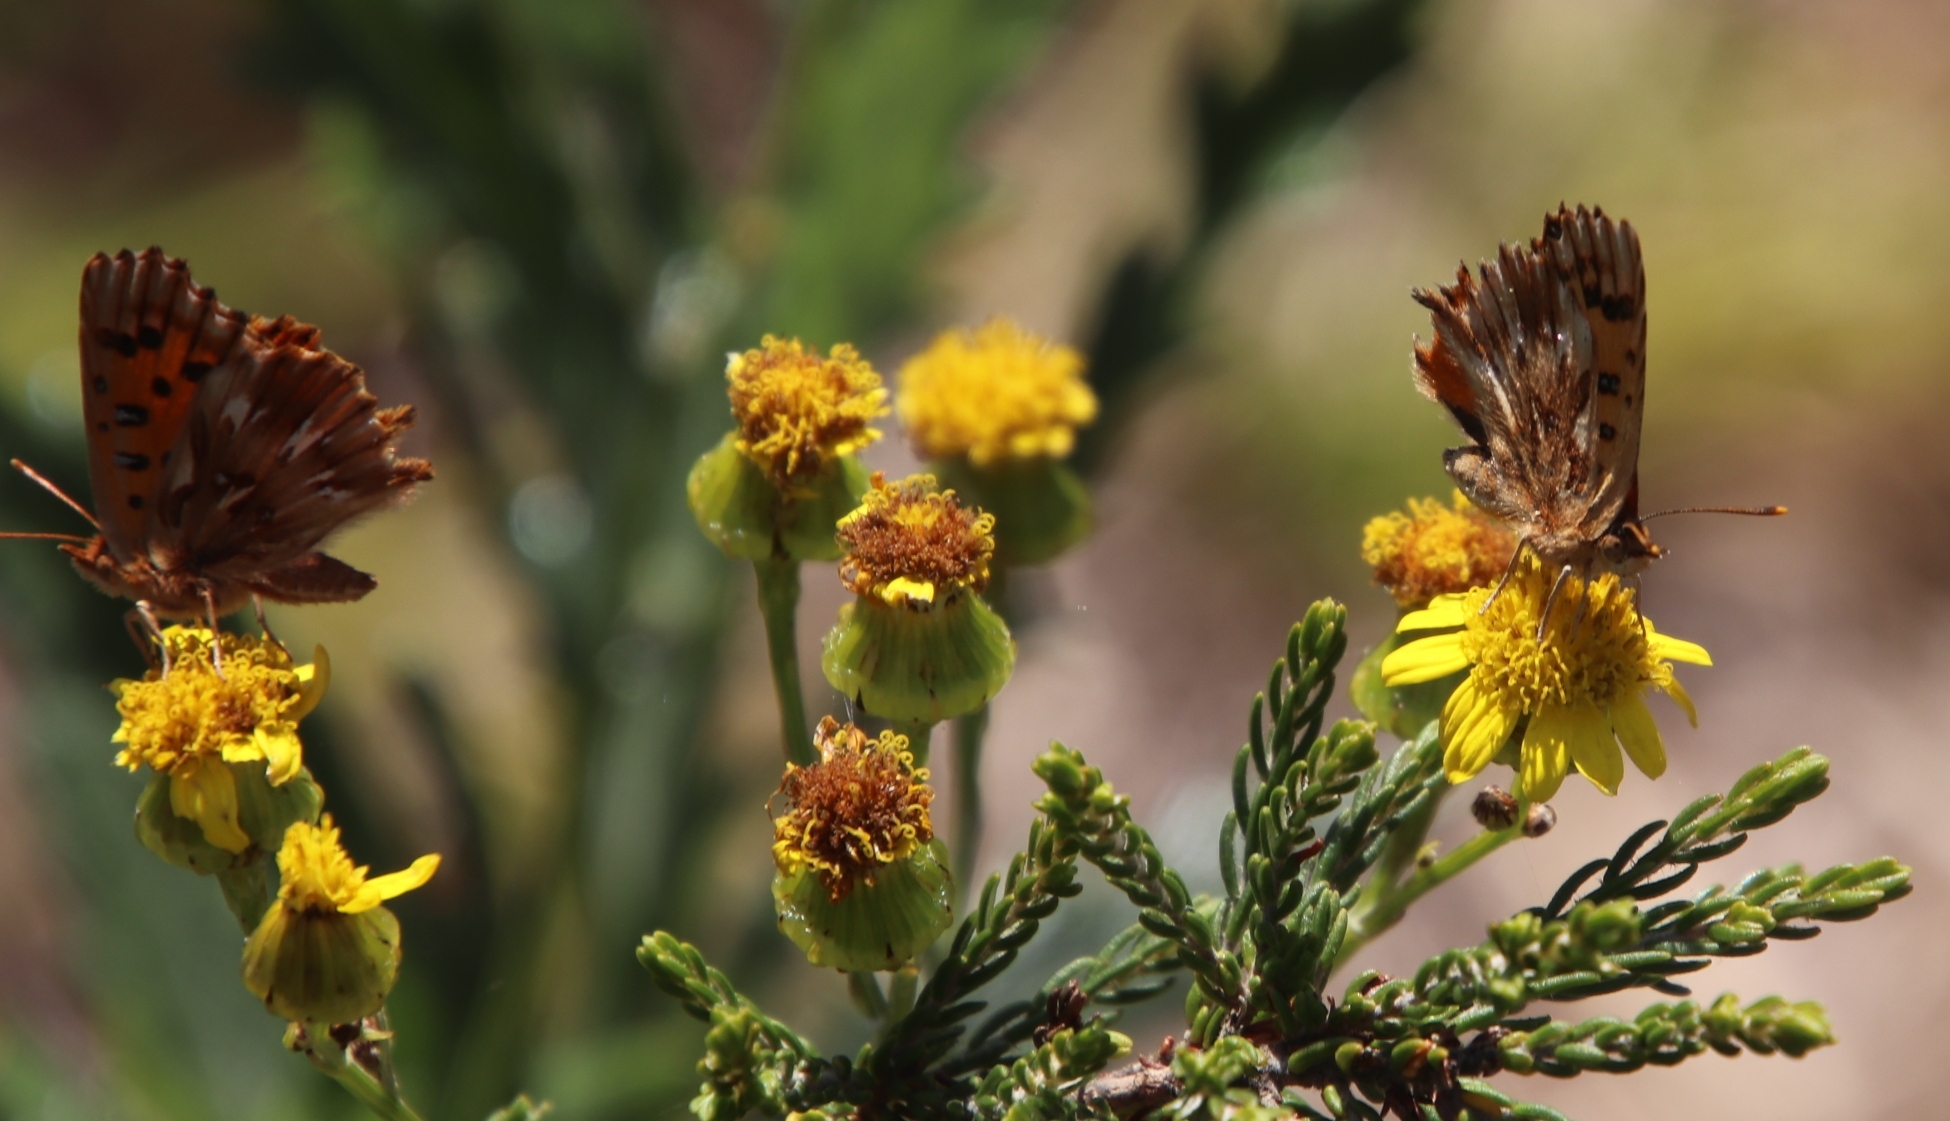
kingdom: Animalia
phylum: Arthropoda
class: Insecta
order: Lepidoptera
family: Lycaenidae
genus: Chrysoritis
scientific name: Chrysoritis thysbe
